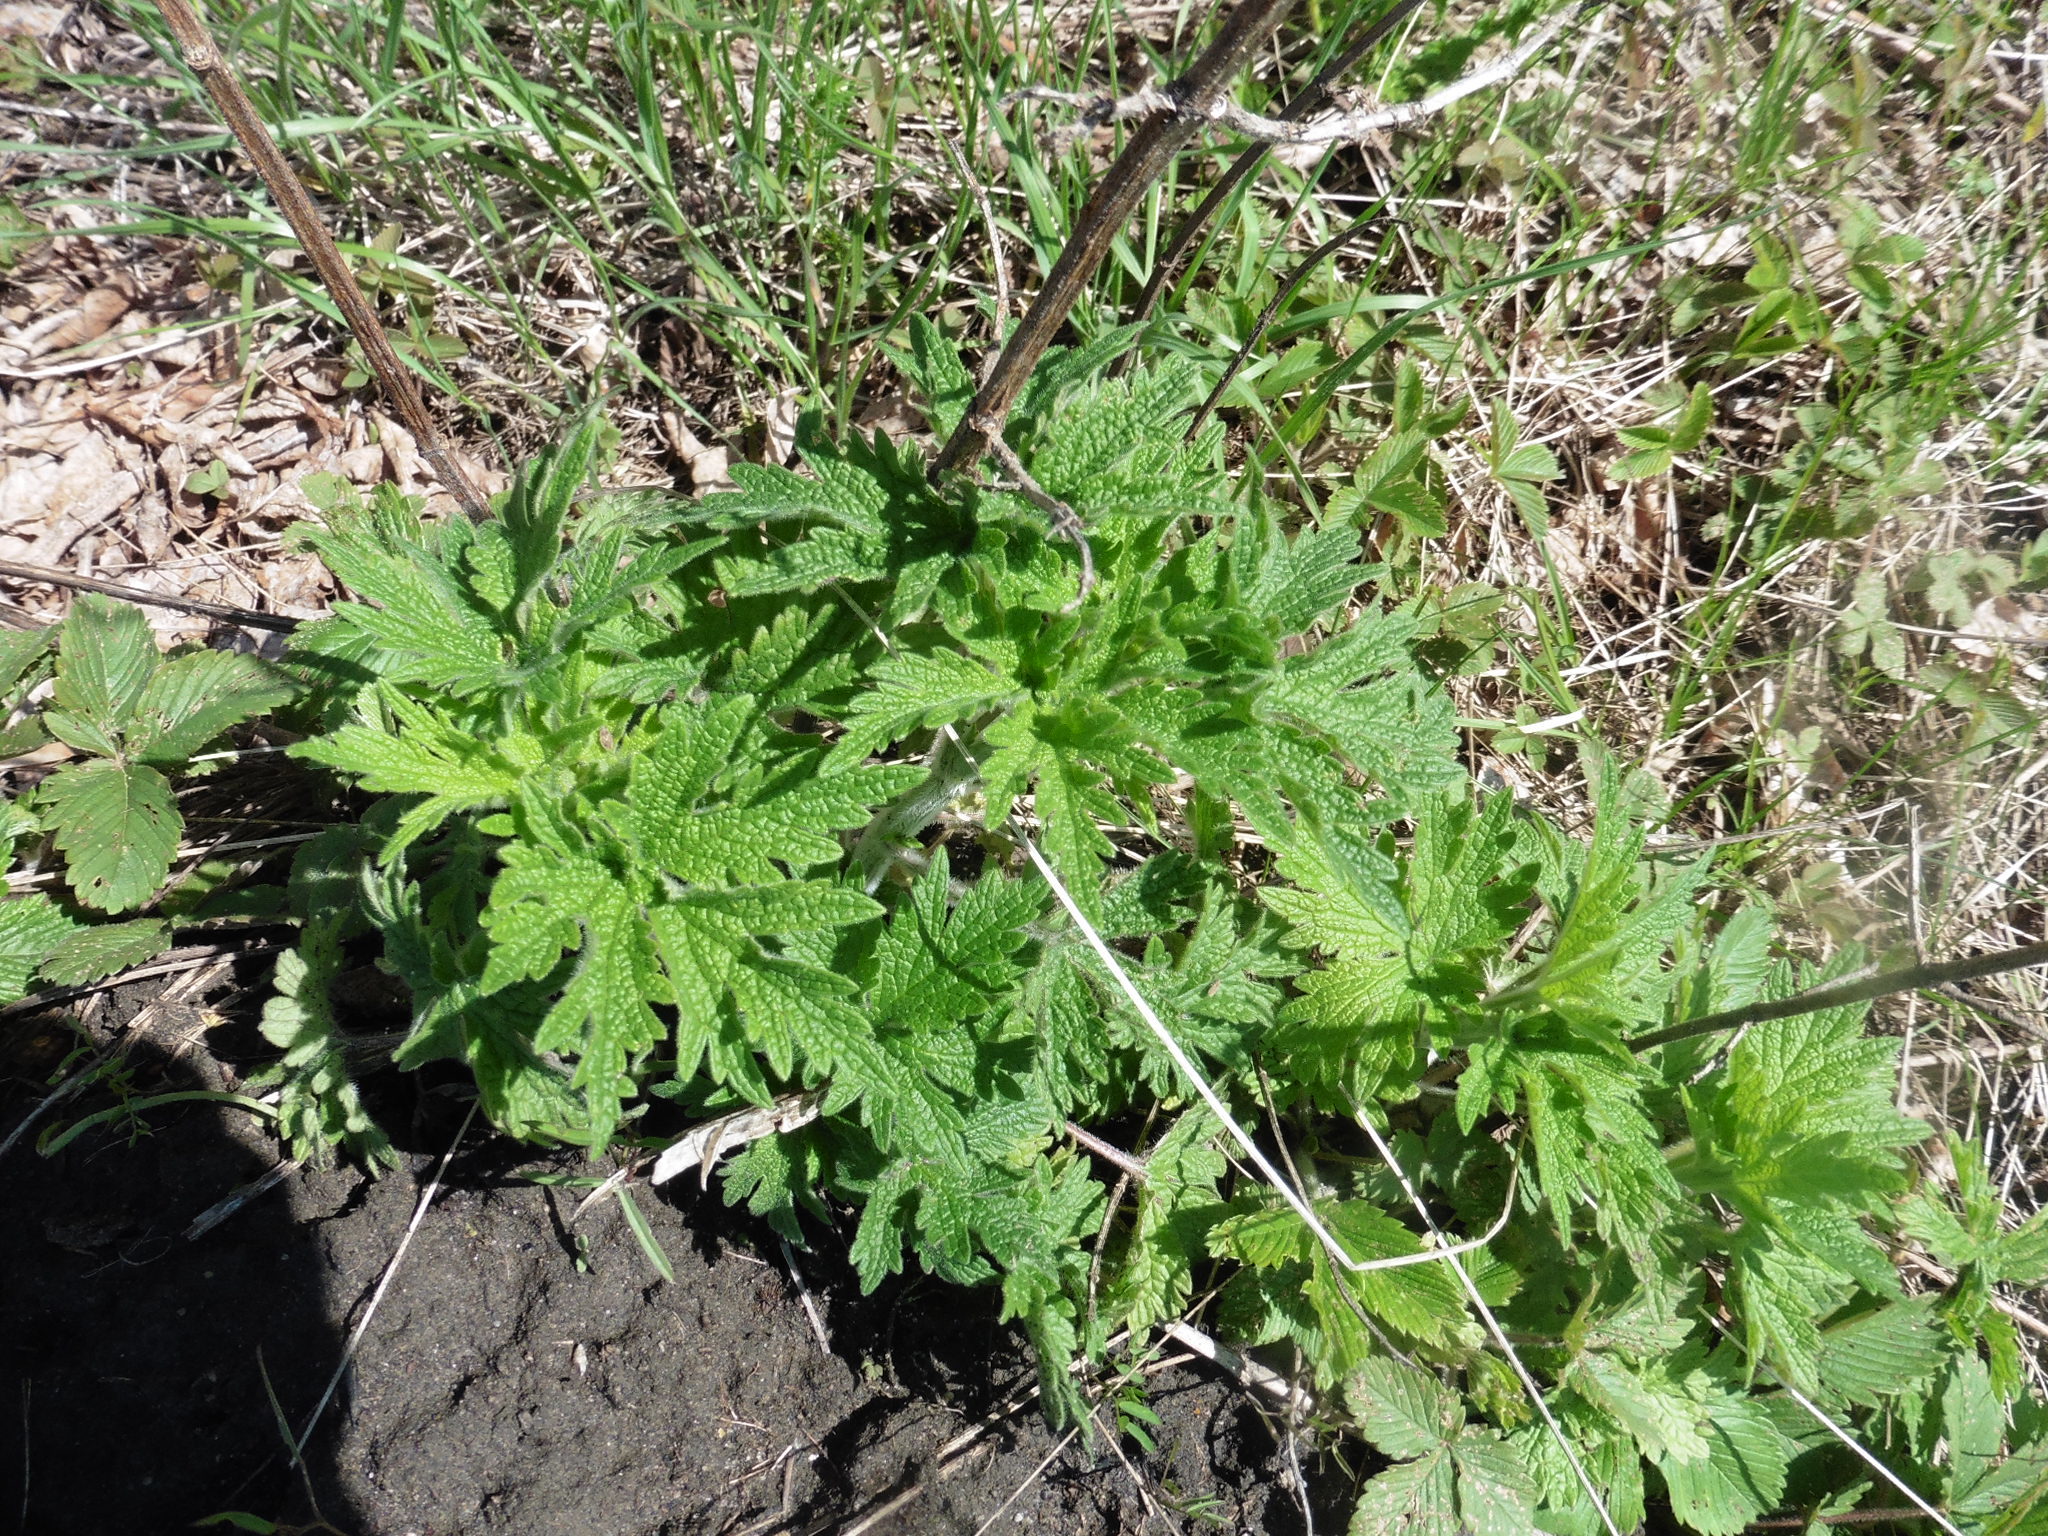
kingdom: Plantae
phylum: Tracheophyta
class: Magnoliopsida
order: Lamiales
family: Lamiaceae
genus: Leonurus
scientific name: Leonurus quinquelobatus
